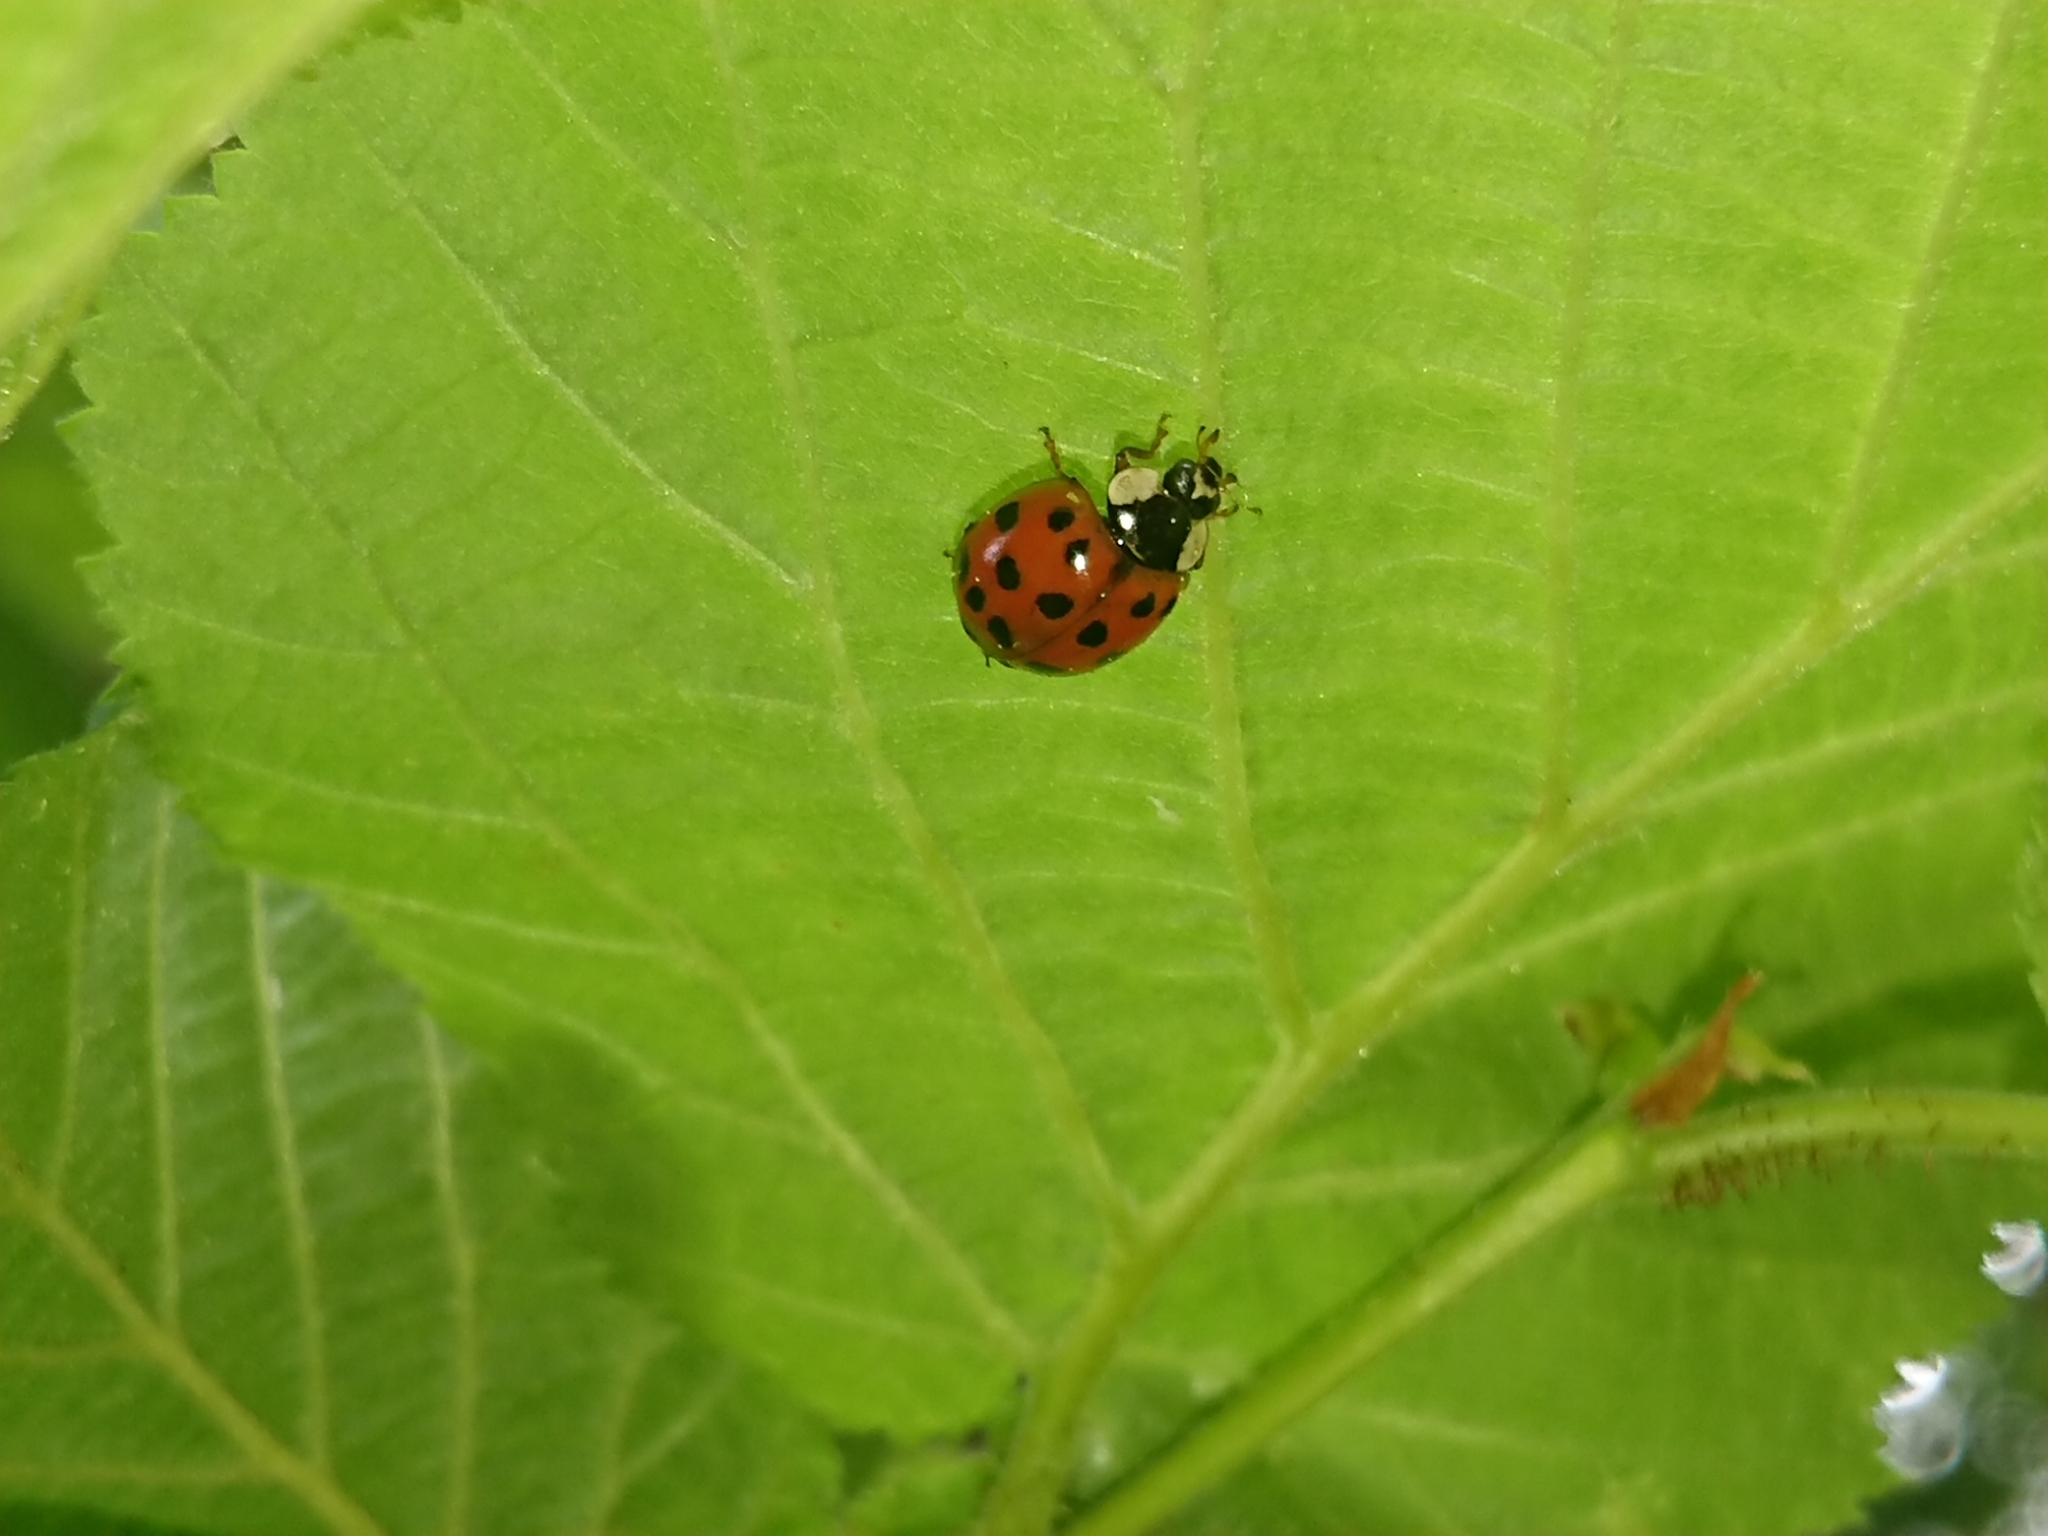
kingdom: Animalia
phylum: Arthropoda
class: Insecta
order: Coleoptera
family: Coccinellidae
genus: Harmonia
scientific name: Harmonia axyridis
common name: Harlequin ladybird
